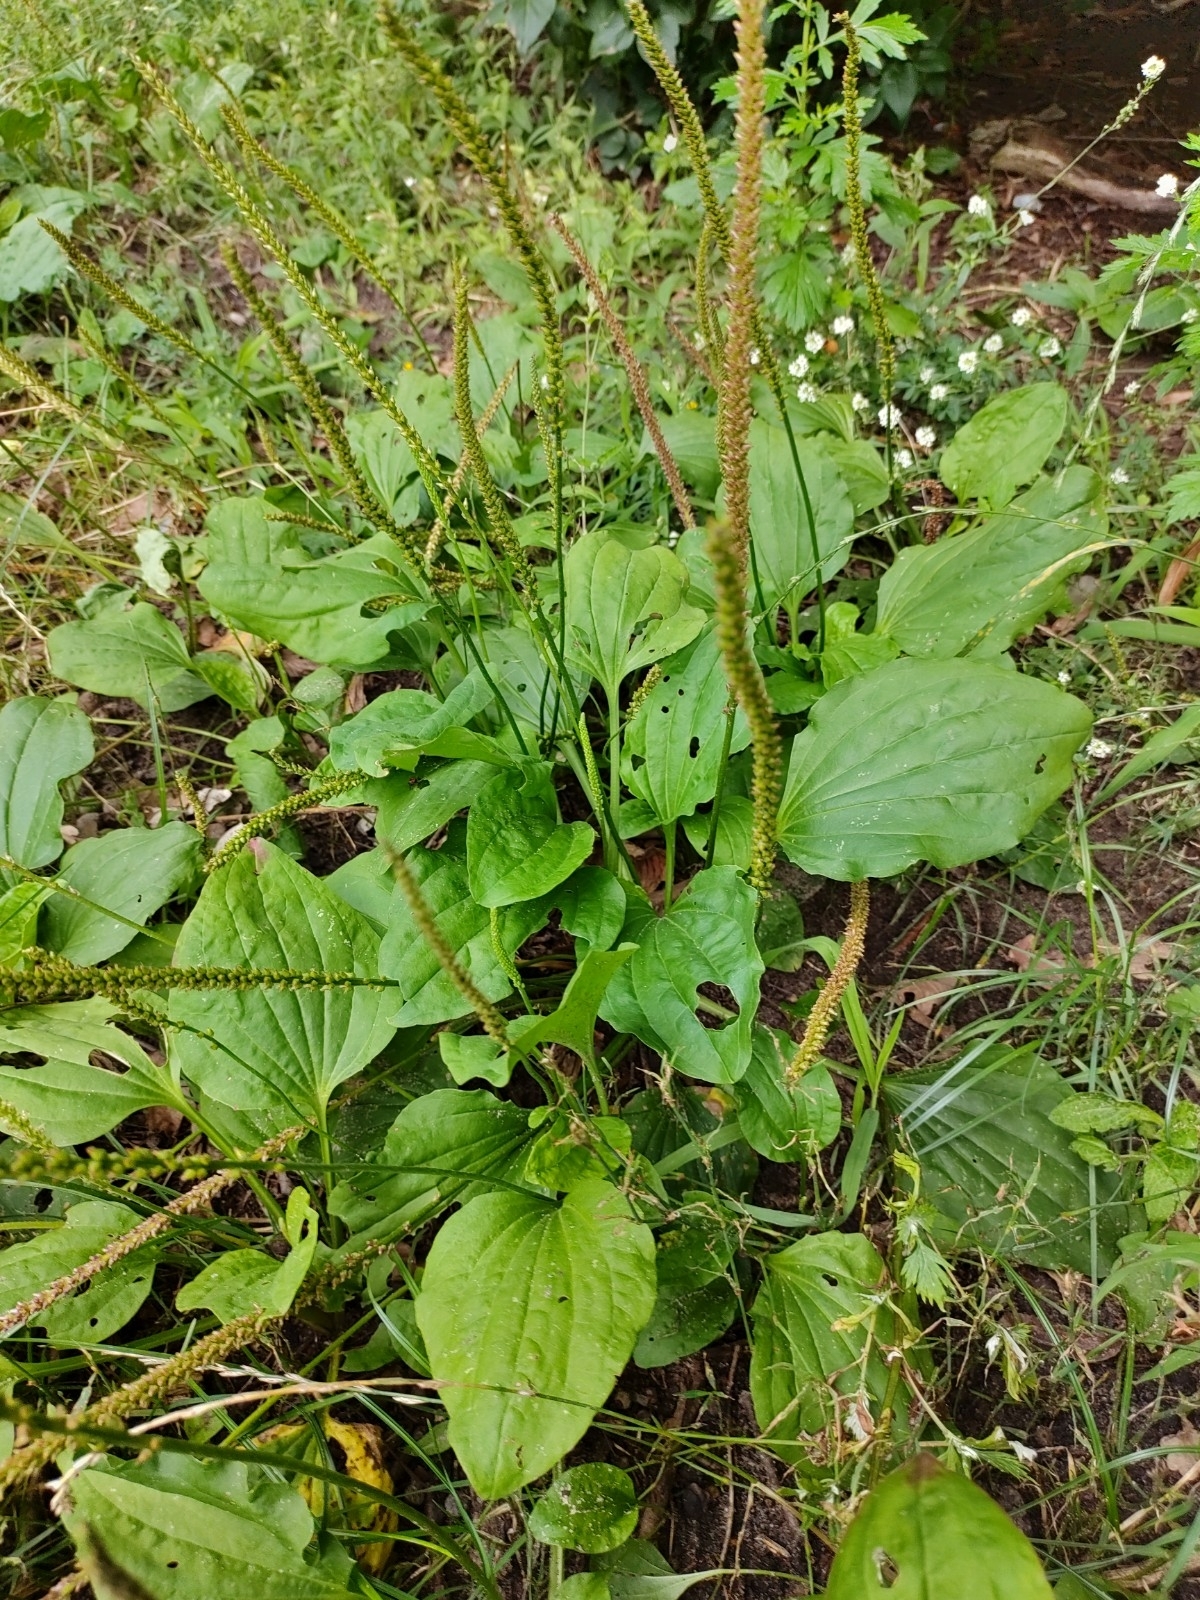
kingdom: Plantae
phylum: Tracheophyta
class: Magnoliopsida
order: Lamiales
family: Plantaginaceae
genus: Plantago
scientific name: Plantago major
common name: Common plantain
